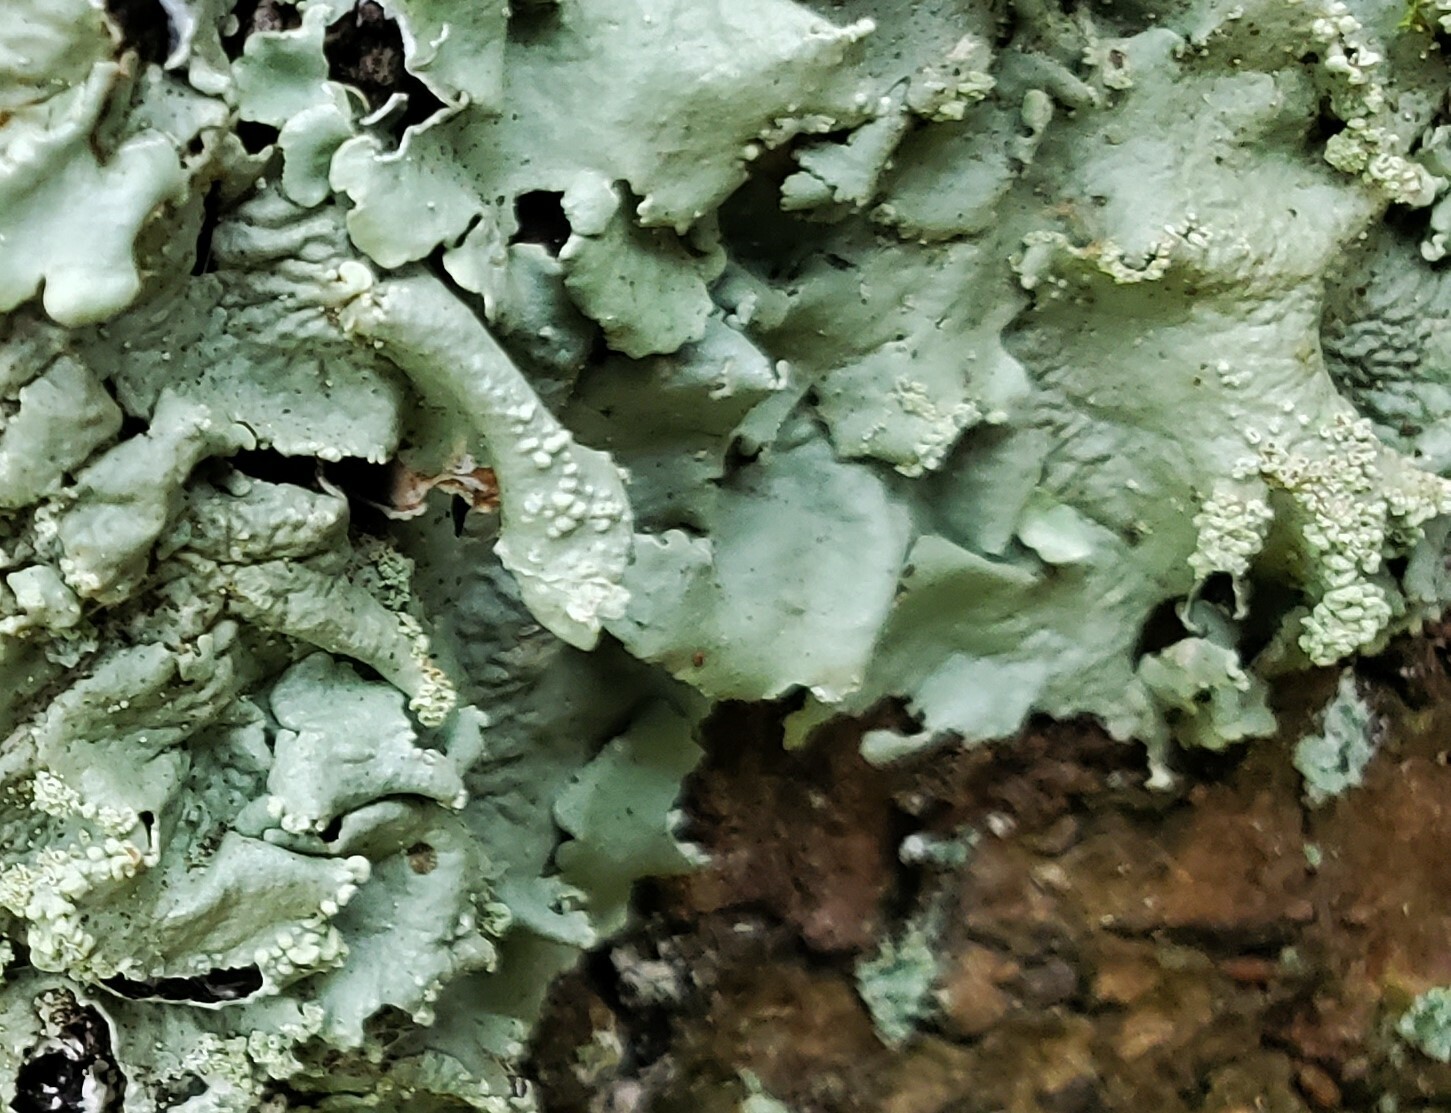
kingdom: Fungi
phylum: Ascomycota
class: Lecanoromycetes
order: Lecanorales
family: Parmeliaceae
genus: Flavoparmelia
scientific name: Flavoparmelia caperata
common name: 40-mile per hour lichen
